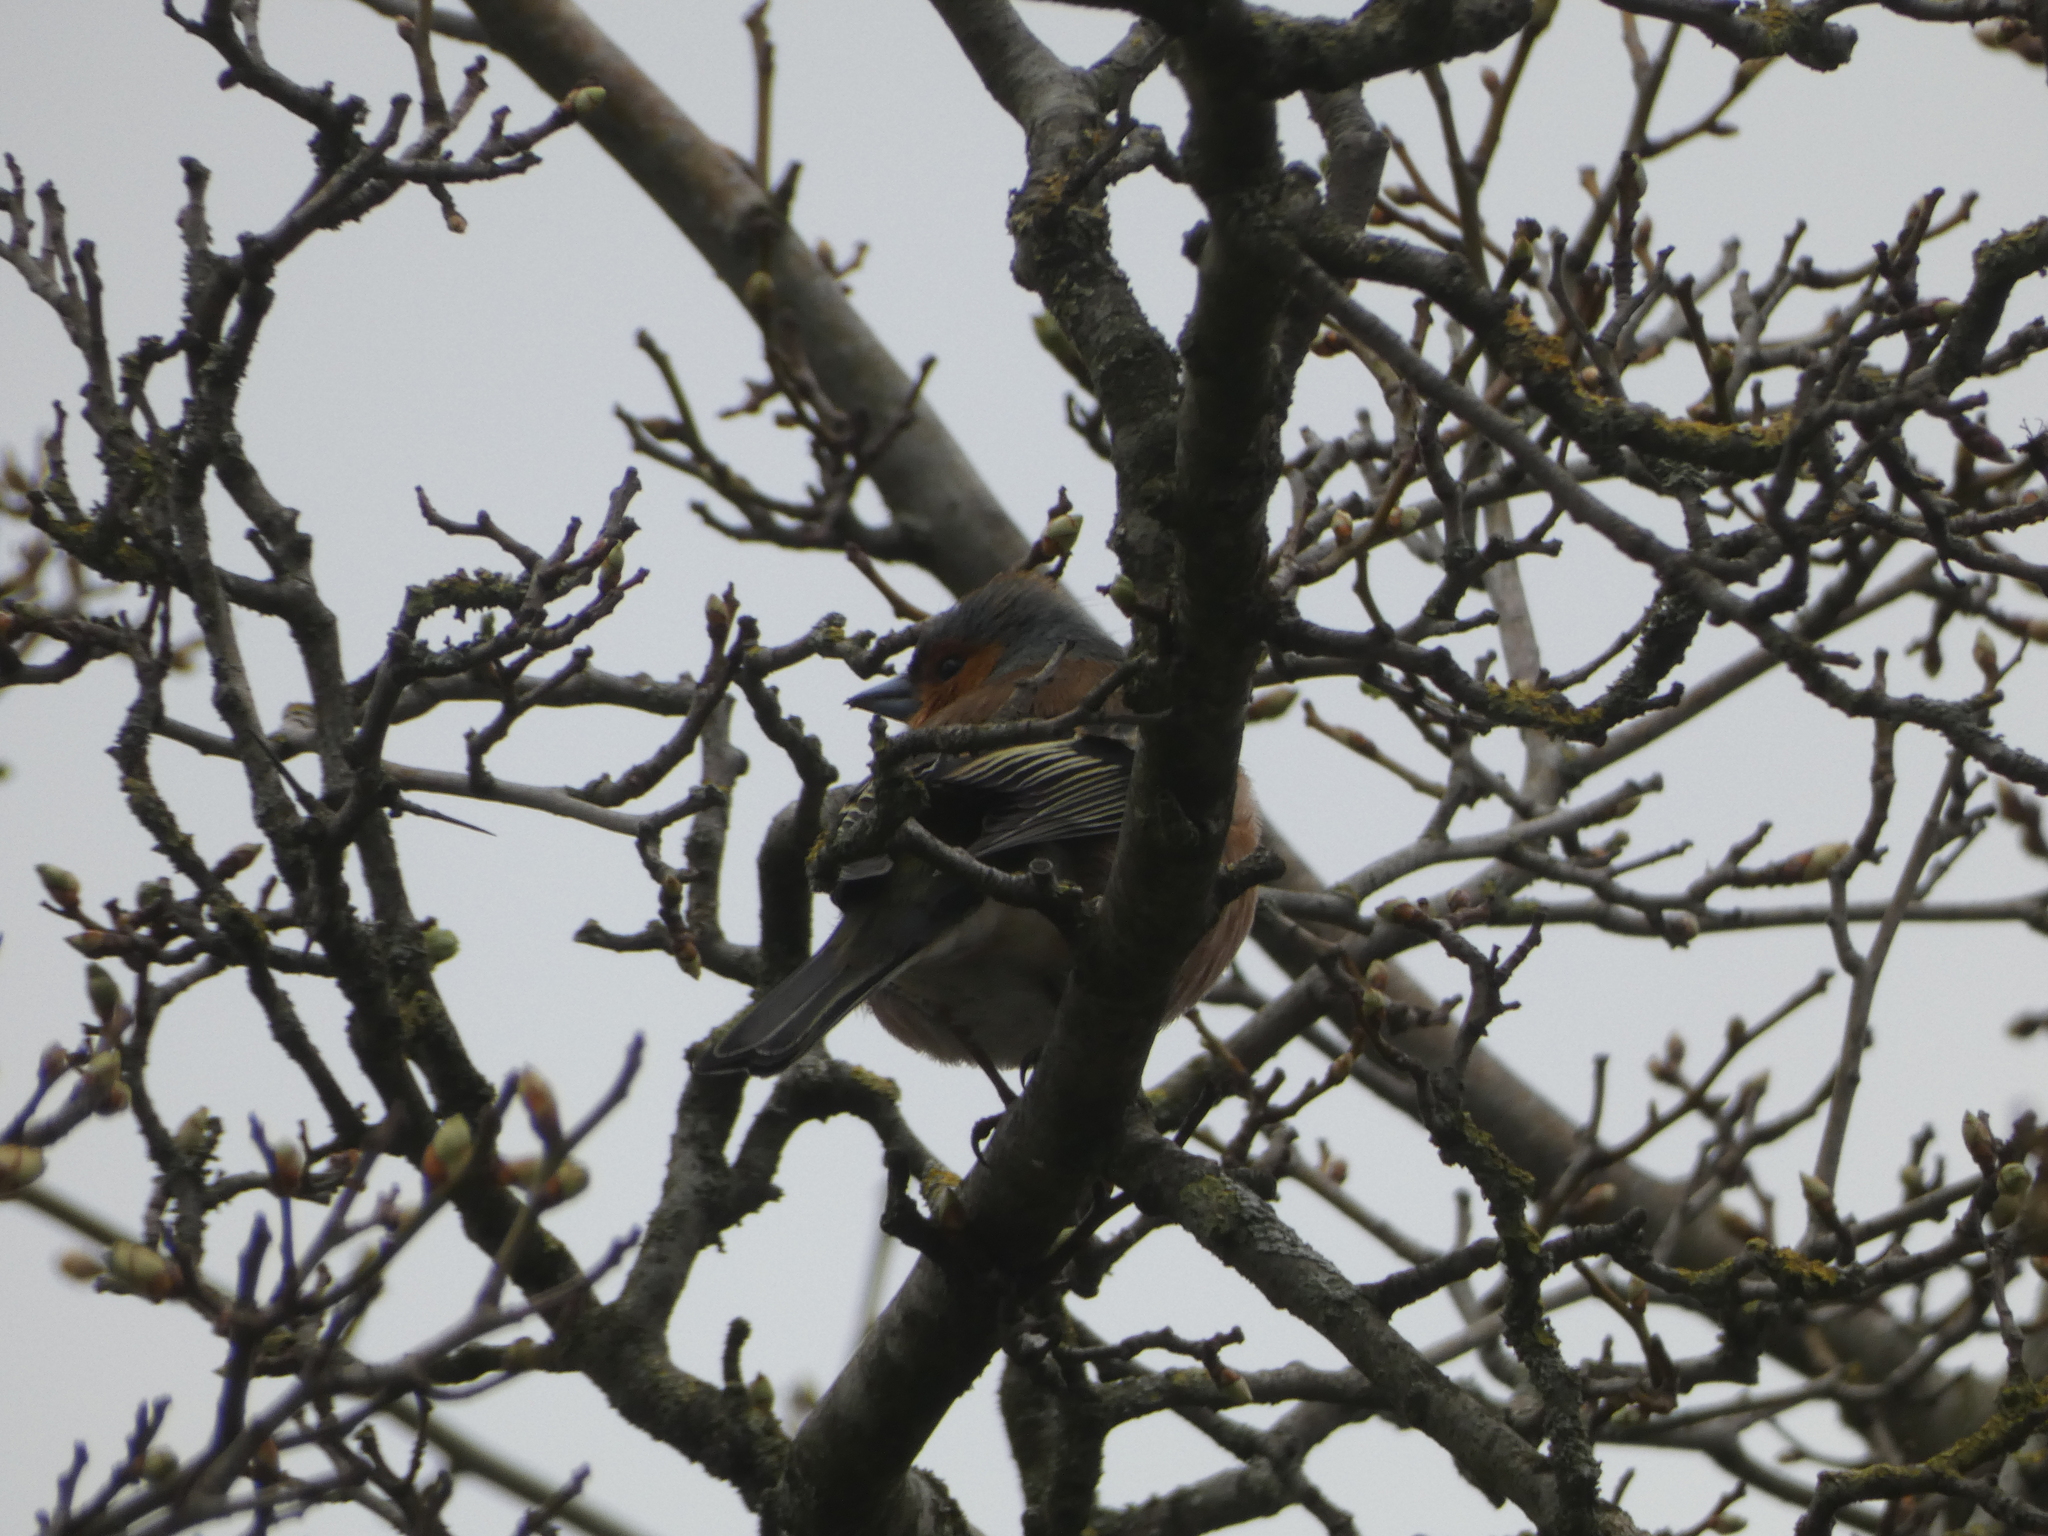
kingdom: Animalia
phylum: Chordata
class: Aves
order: Passeriformes
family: Fringillidae
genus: Fringilla
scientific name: Fringilla coelebs
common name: Common chaffinch
